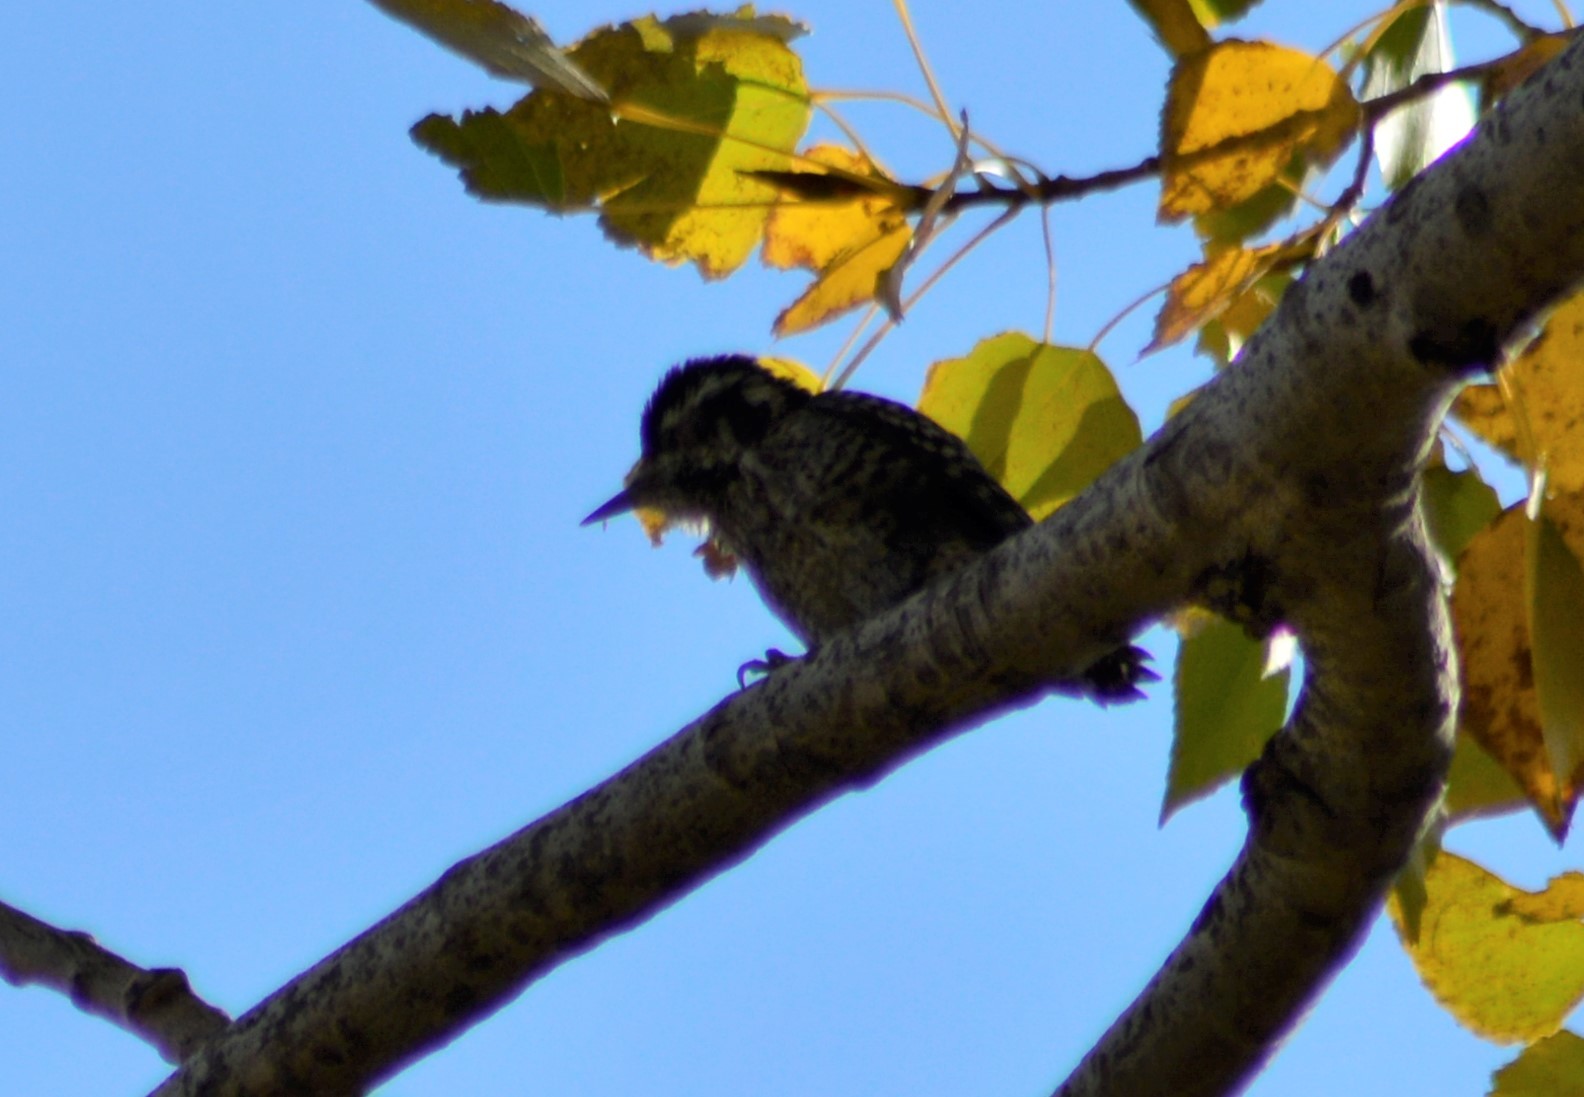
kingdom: Animalia
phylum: Chordata
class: Aves
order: Piciformes
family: Picidae
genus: Veniliornis
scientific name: Veniliornis mixtus
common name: Checkered woodpecker
